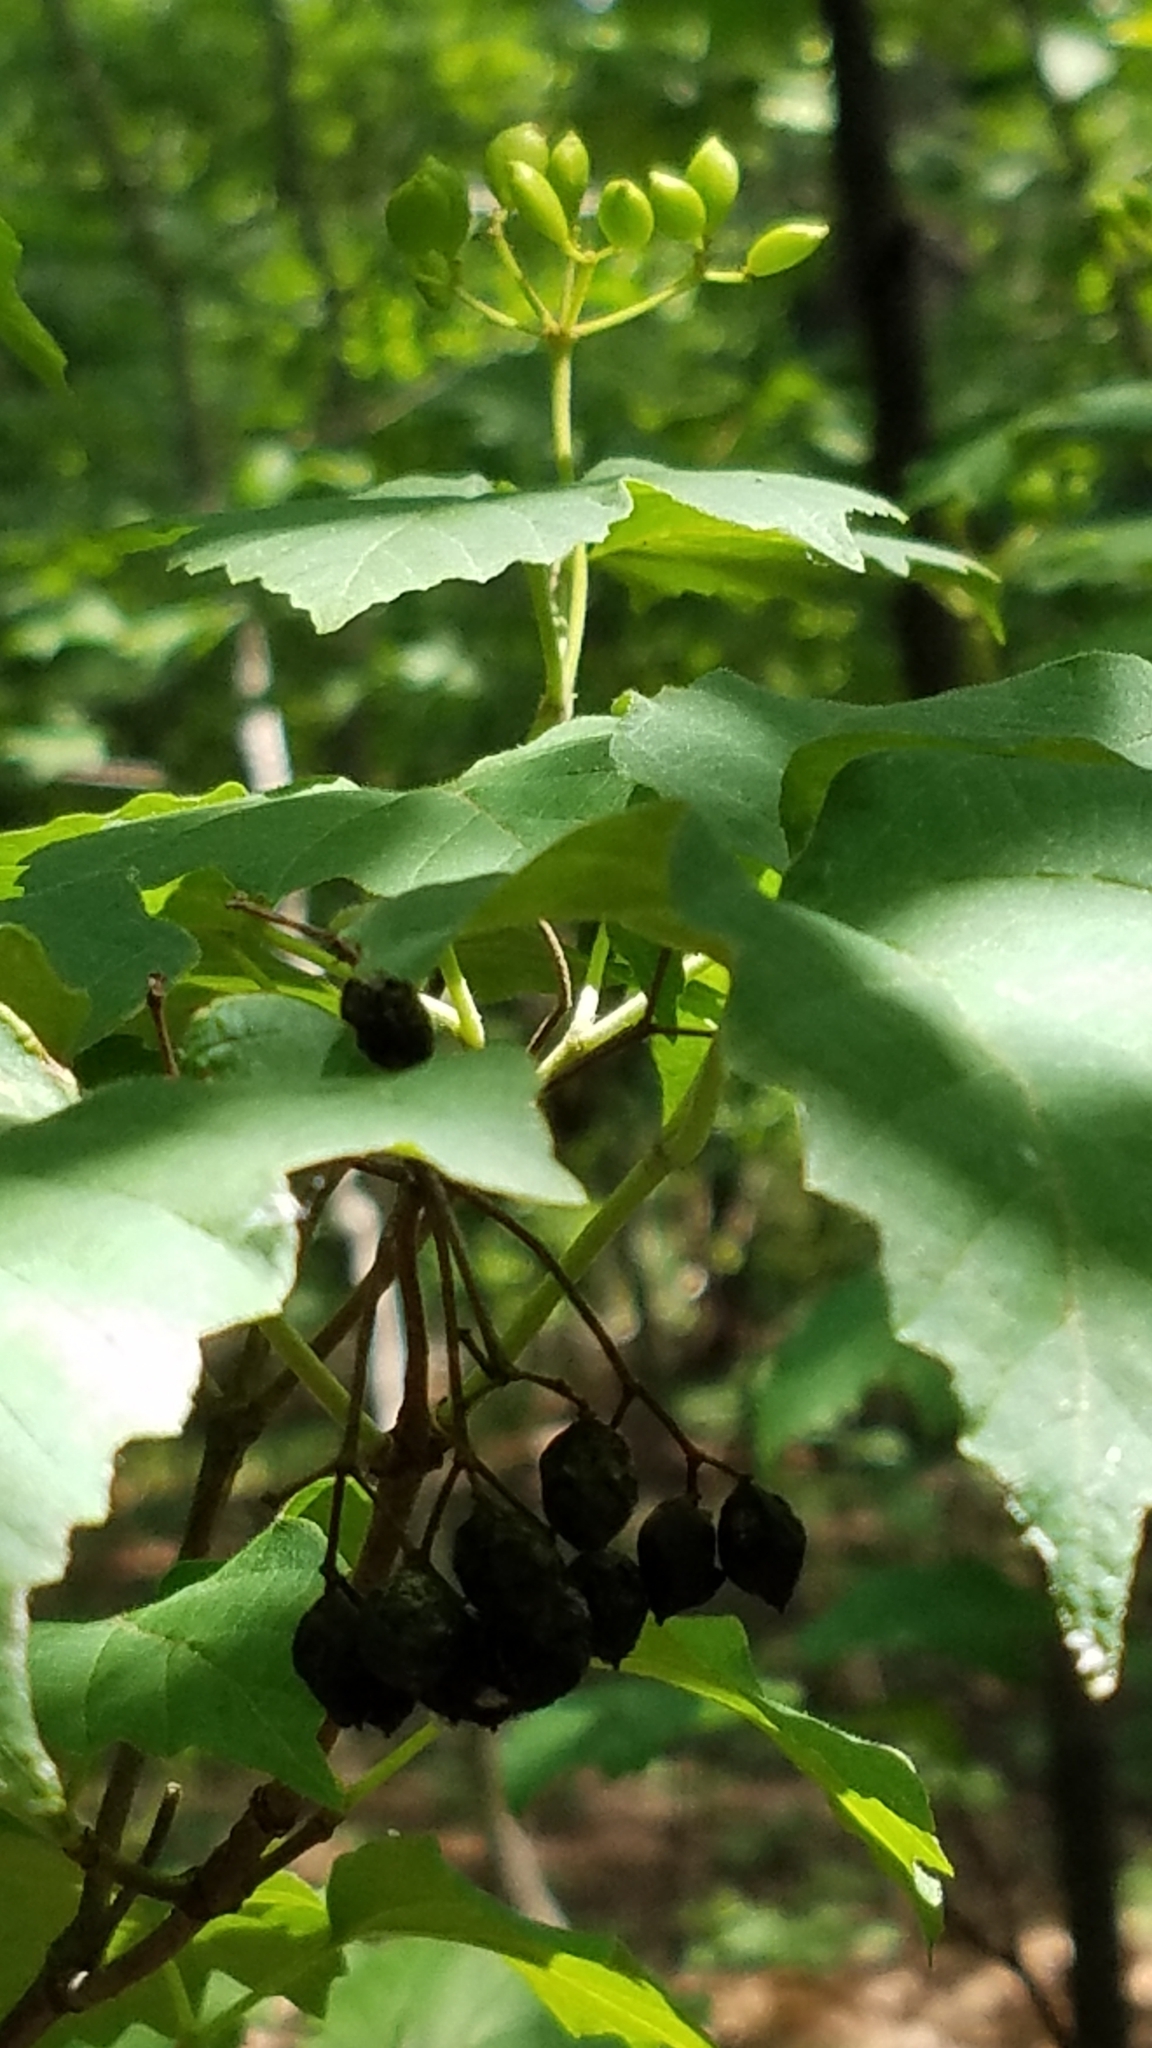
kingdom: Plantae
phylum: Tracheophyta
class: Magnoliopsida
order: Dipsacales
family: Viburnaceae
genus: Viburnum
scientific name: Viburnum acerifolium
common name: Dockmackie
